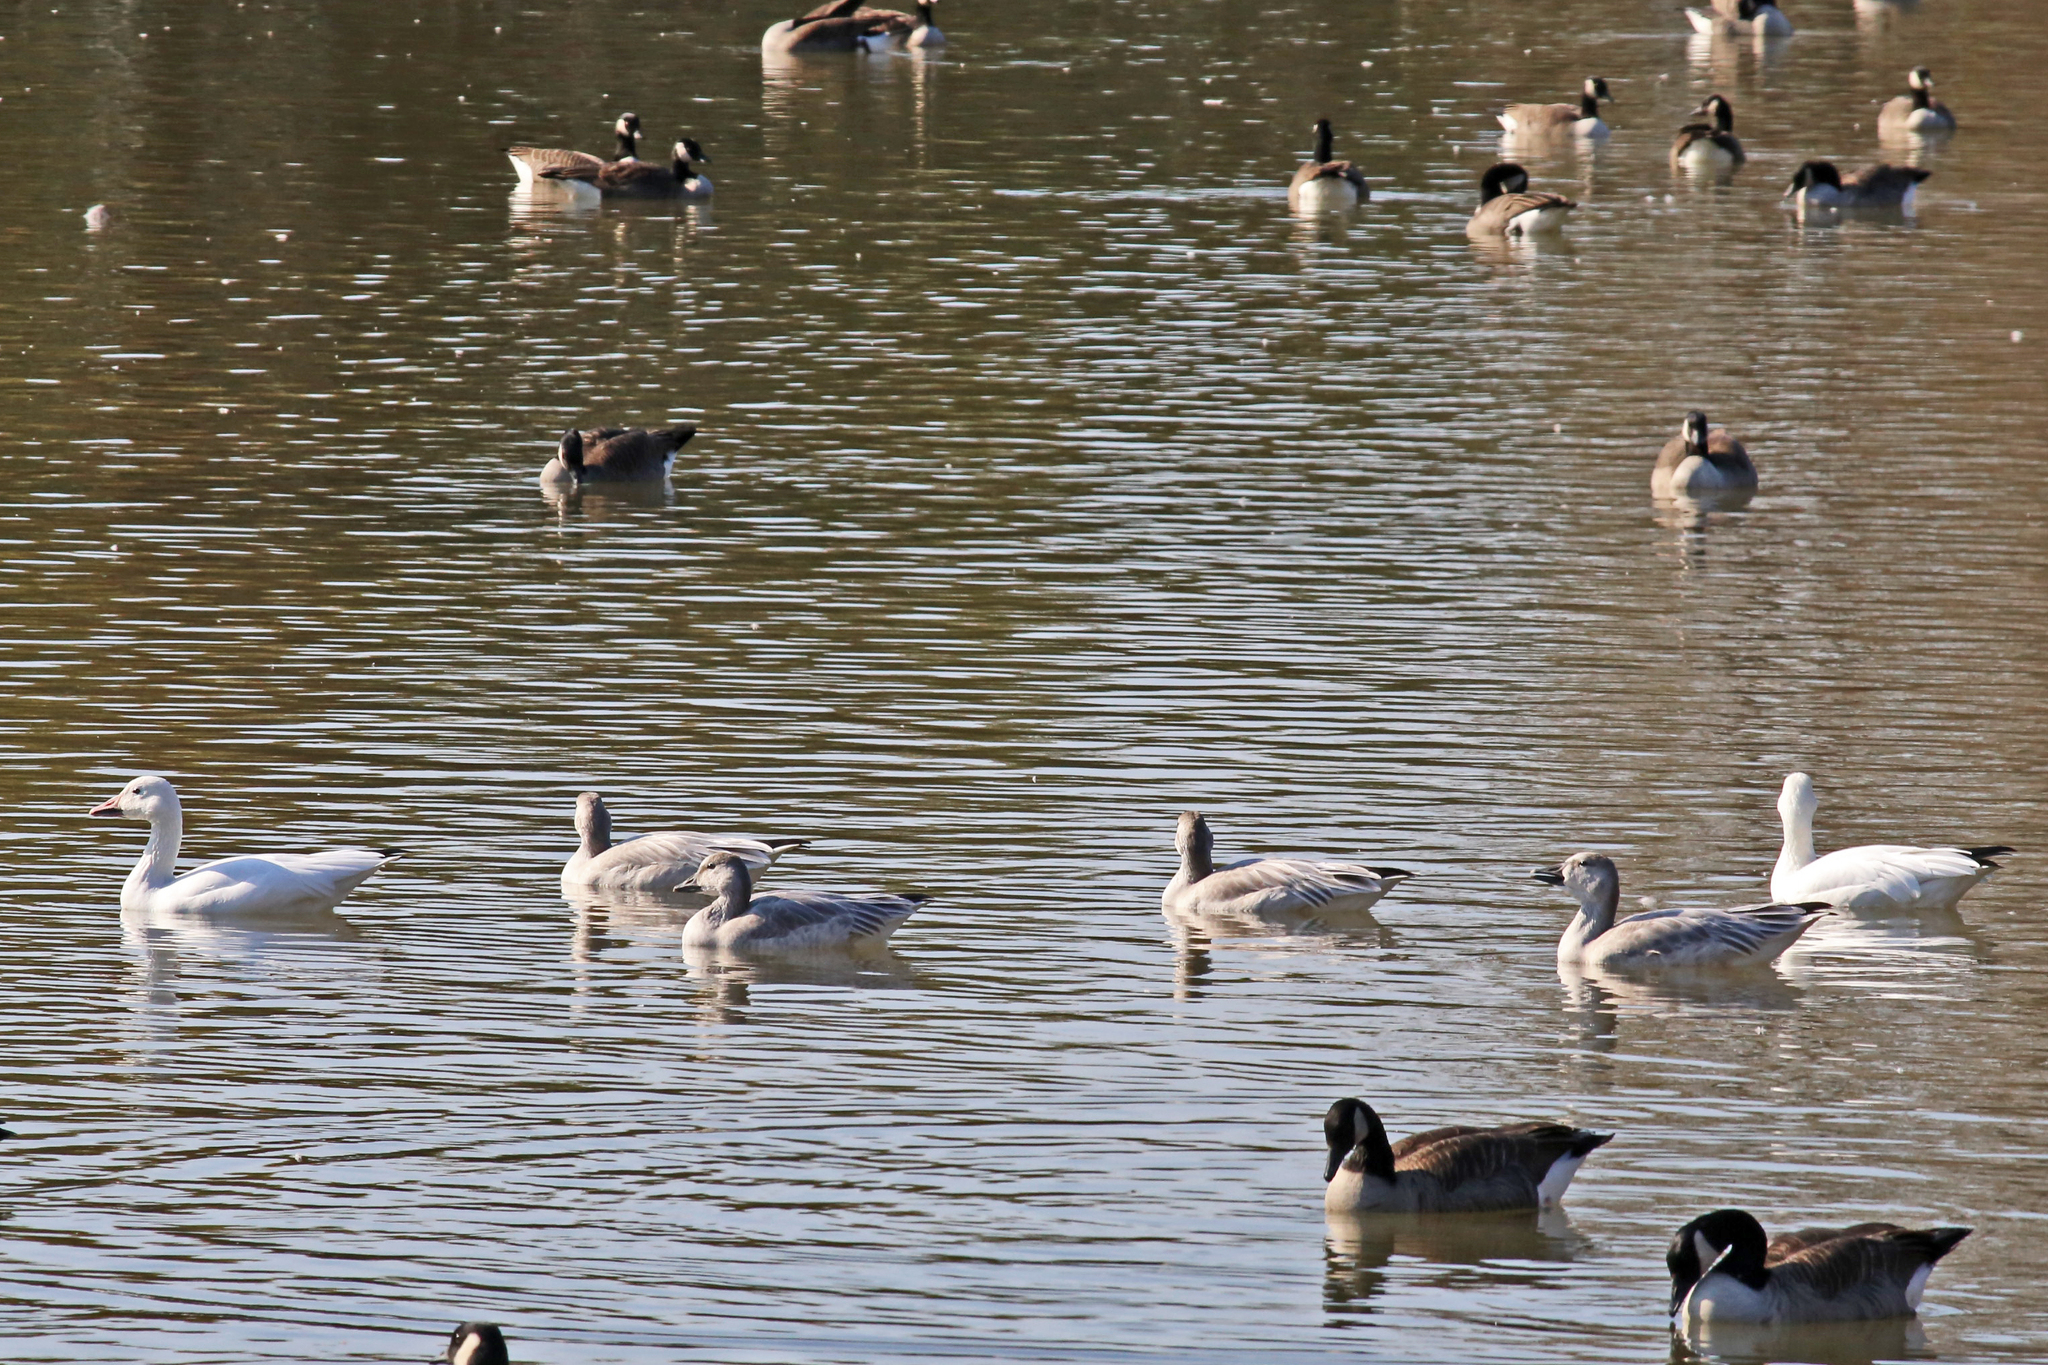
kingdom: Animalia
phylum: Chordata
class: Aves
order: Anseriformes
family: Anatidae
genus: Anser
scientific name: Anser caerulescens
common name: Snow goose
